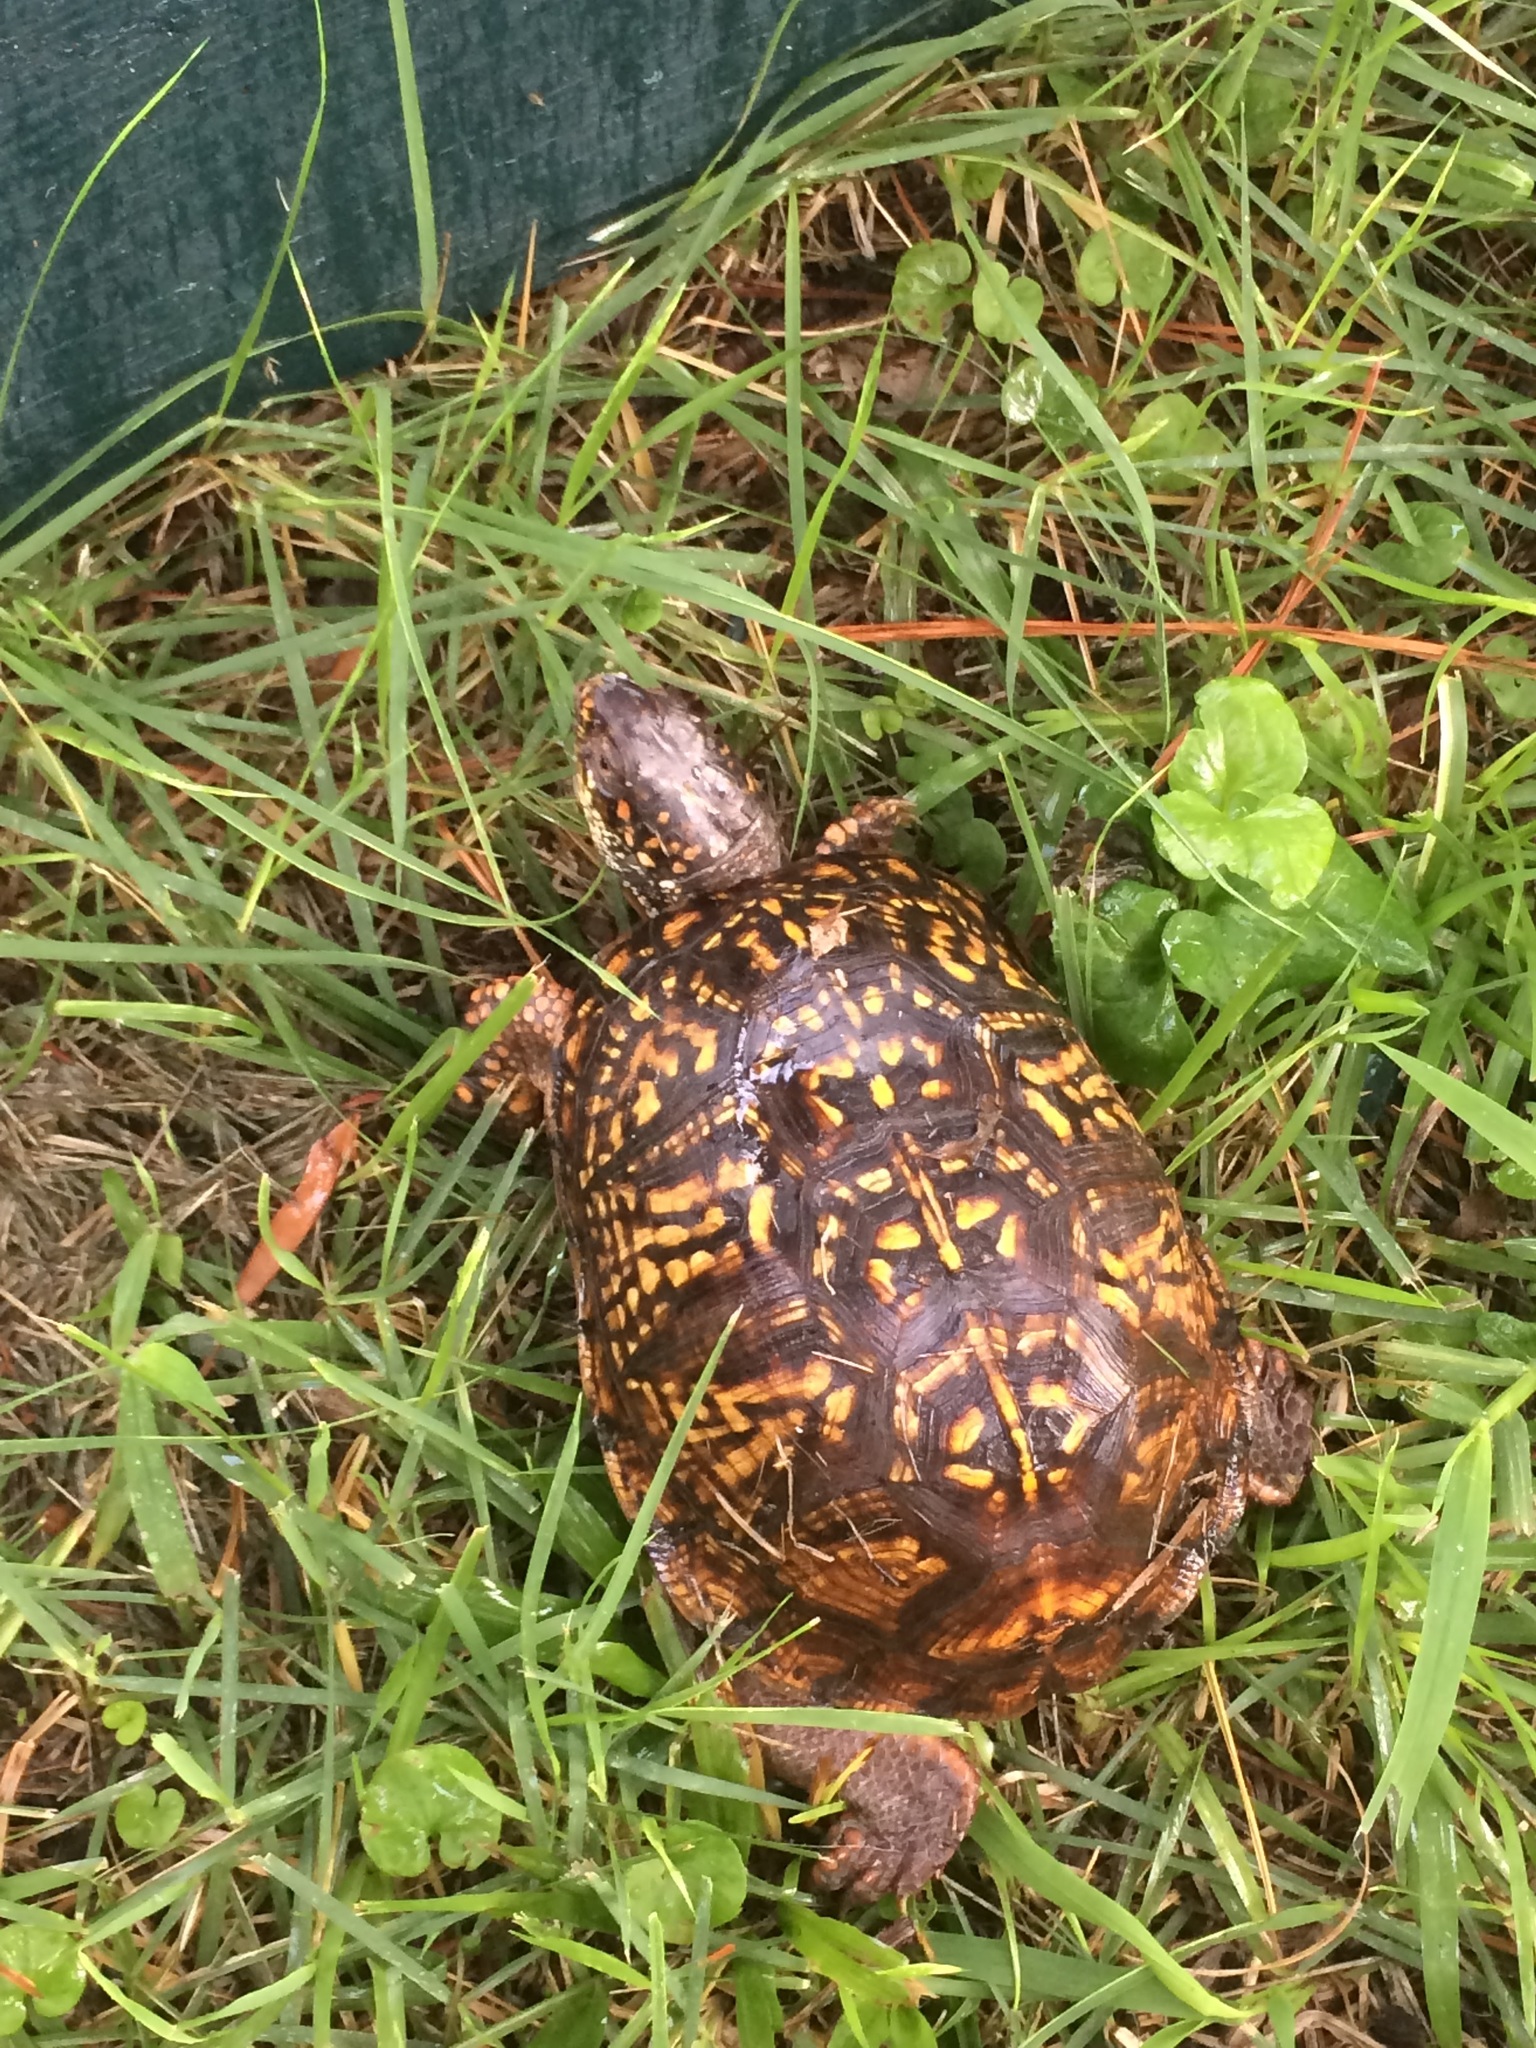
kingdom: Animalia
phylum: Chordata
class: Testudines
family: Emydidae
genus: Terrapene
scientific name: Terrapene carolina
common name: Common box turtle
